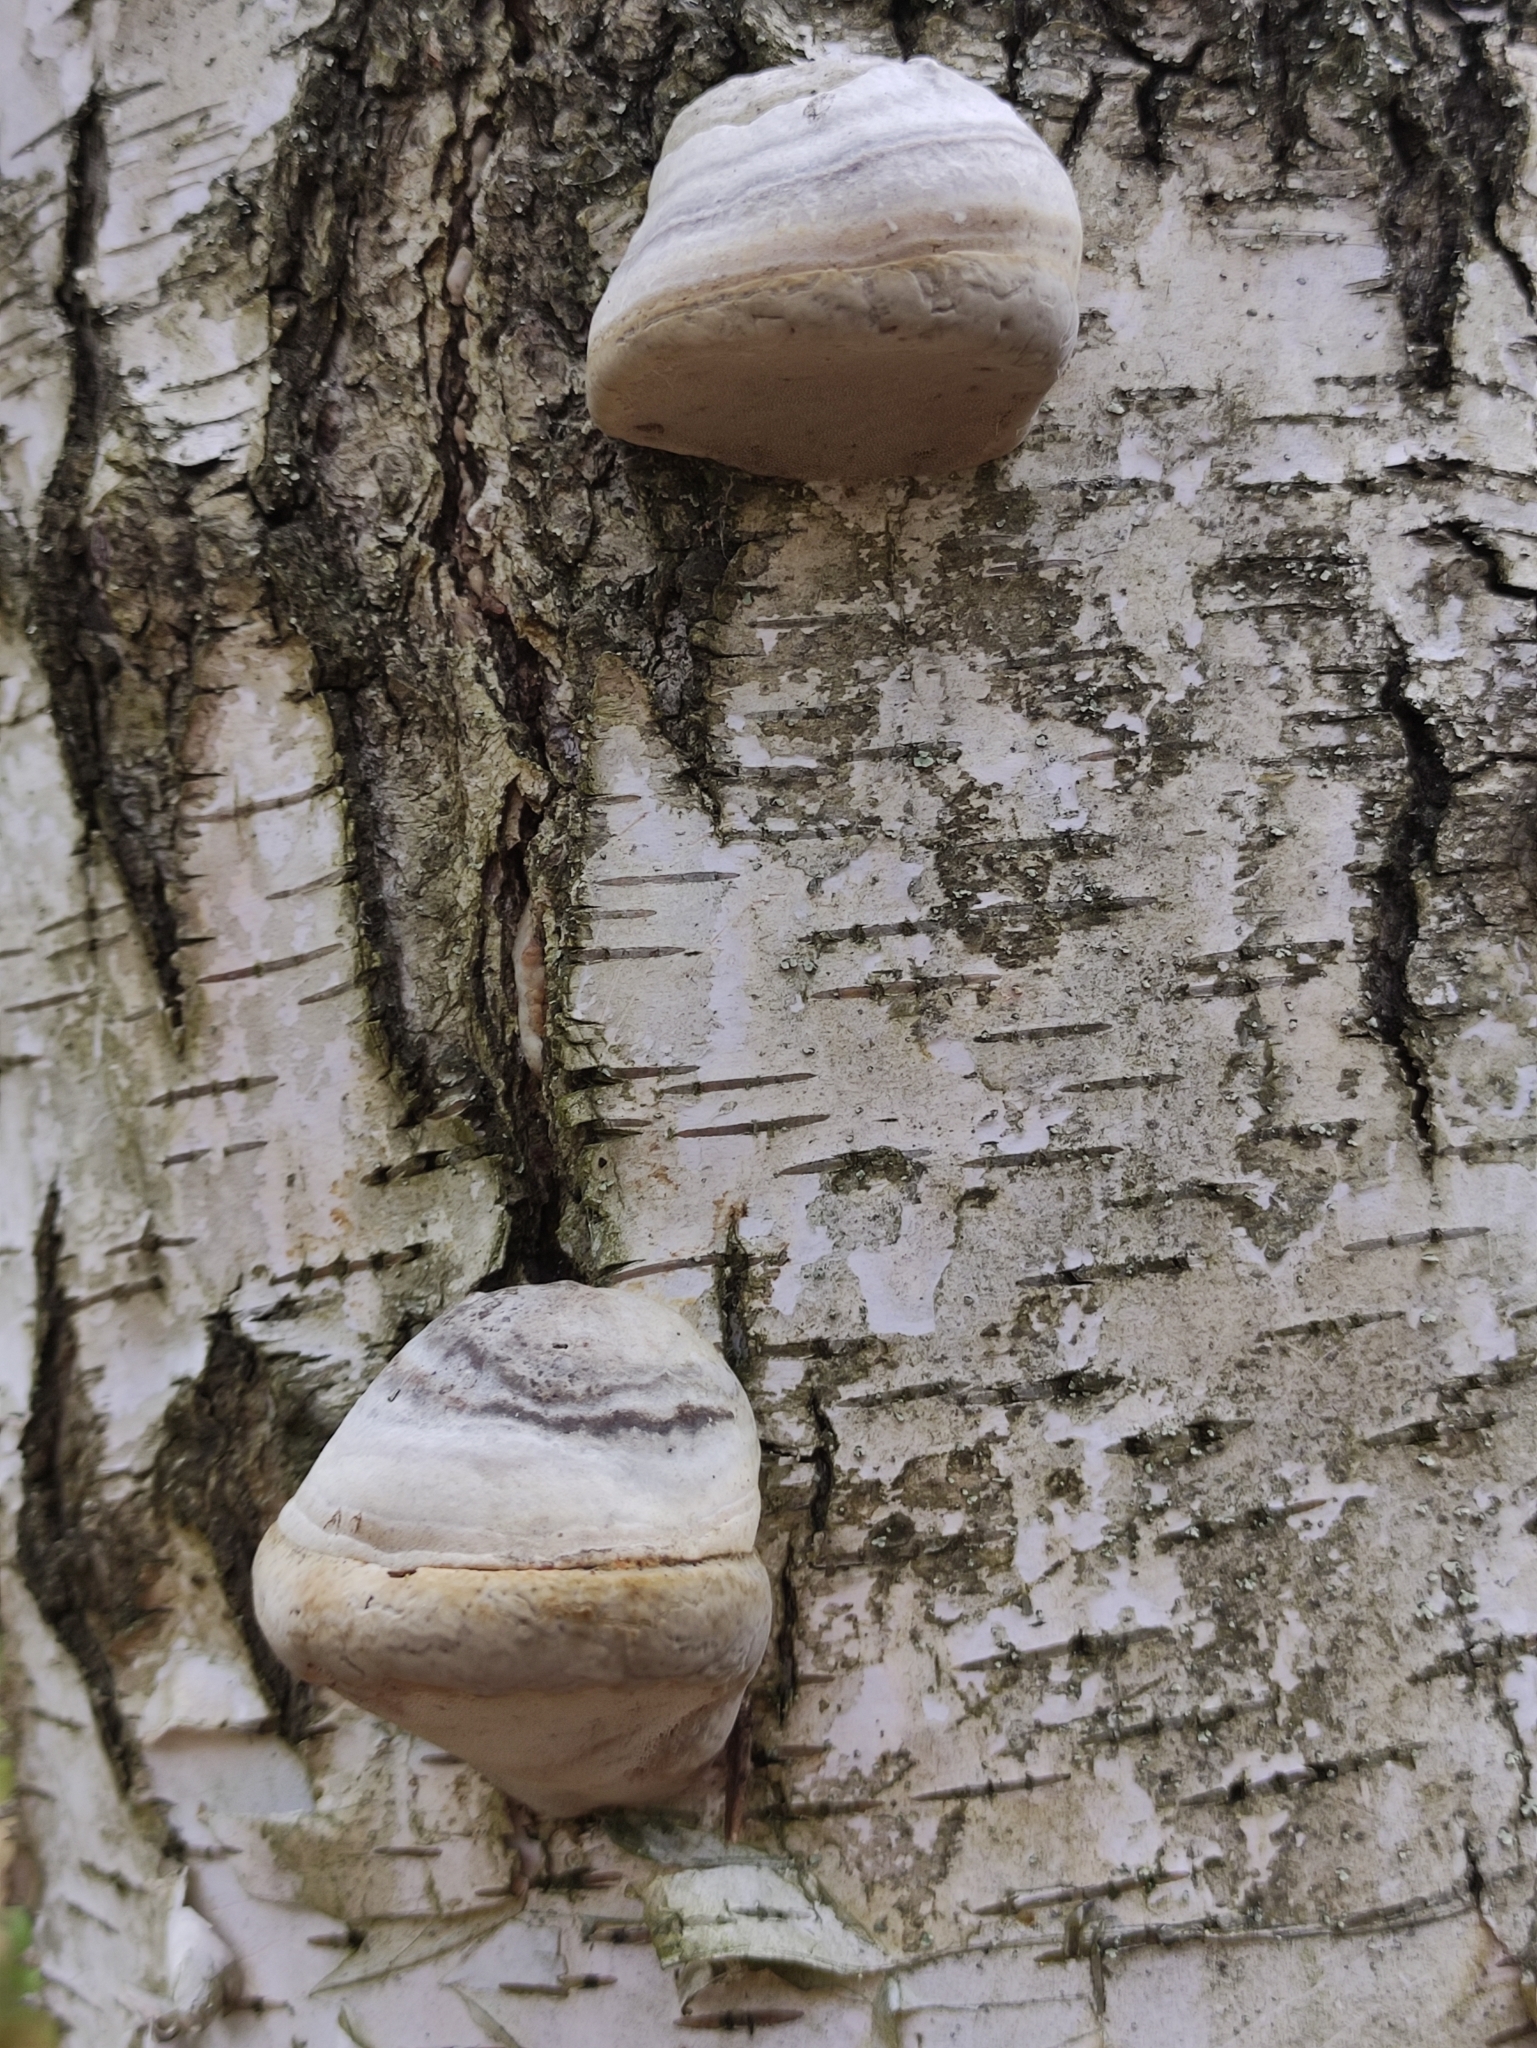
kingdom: Fungi
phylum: Basidiomycota
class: Agaricomycetes
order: Polyporales
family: Polyporaceae
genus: Fomes
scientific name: Fomes fomentarius
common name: Hoof fungus
